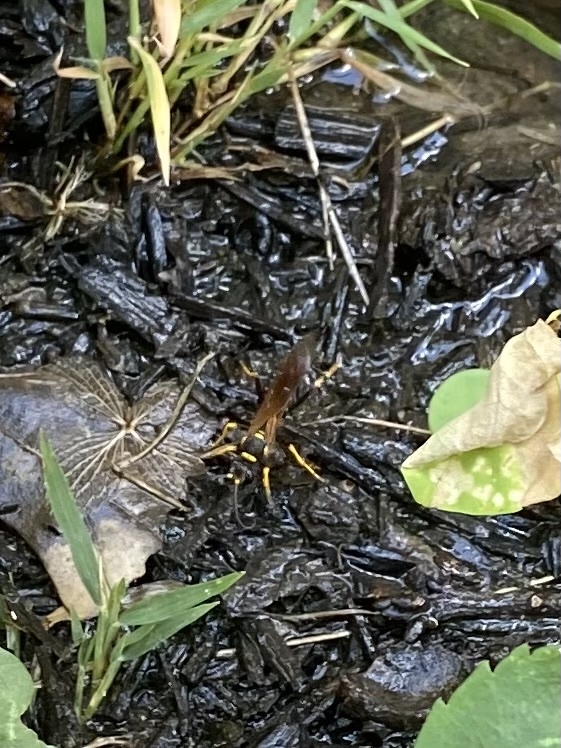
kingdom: Animalia
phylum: Arthropoda
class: Insecta
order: Hymenoptera
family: Sphecidae
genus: Sceliphron
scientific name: Sceliphron caementarium
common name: Mud dauber
